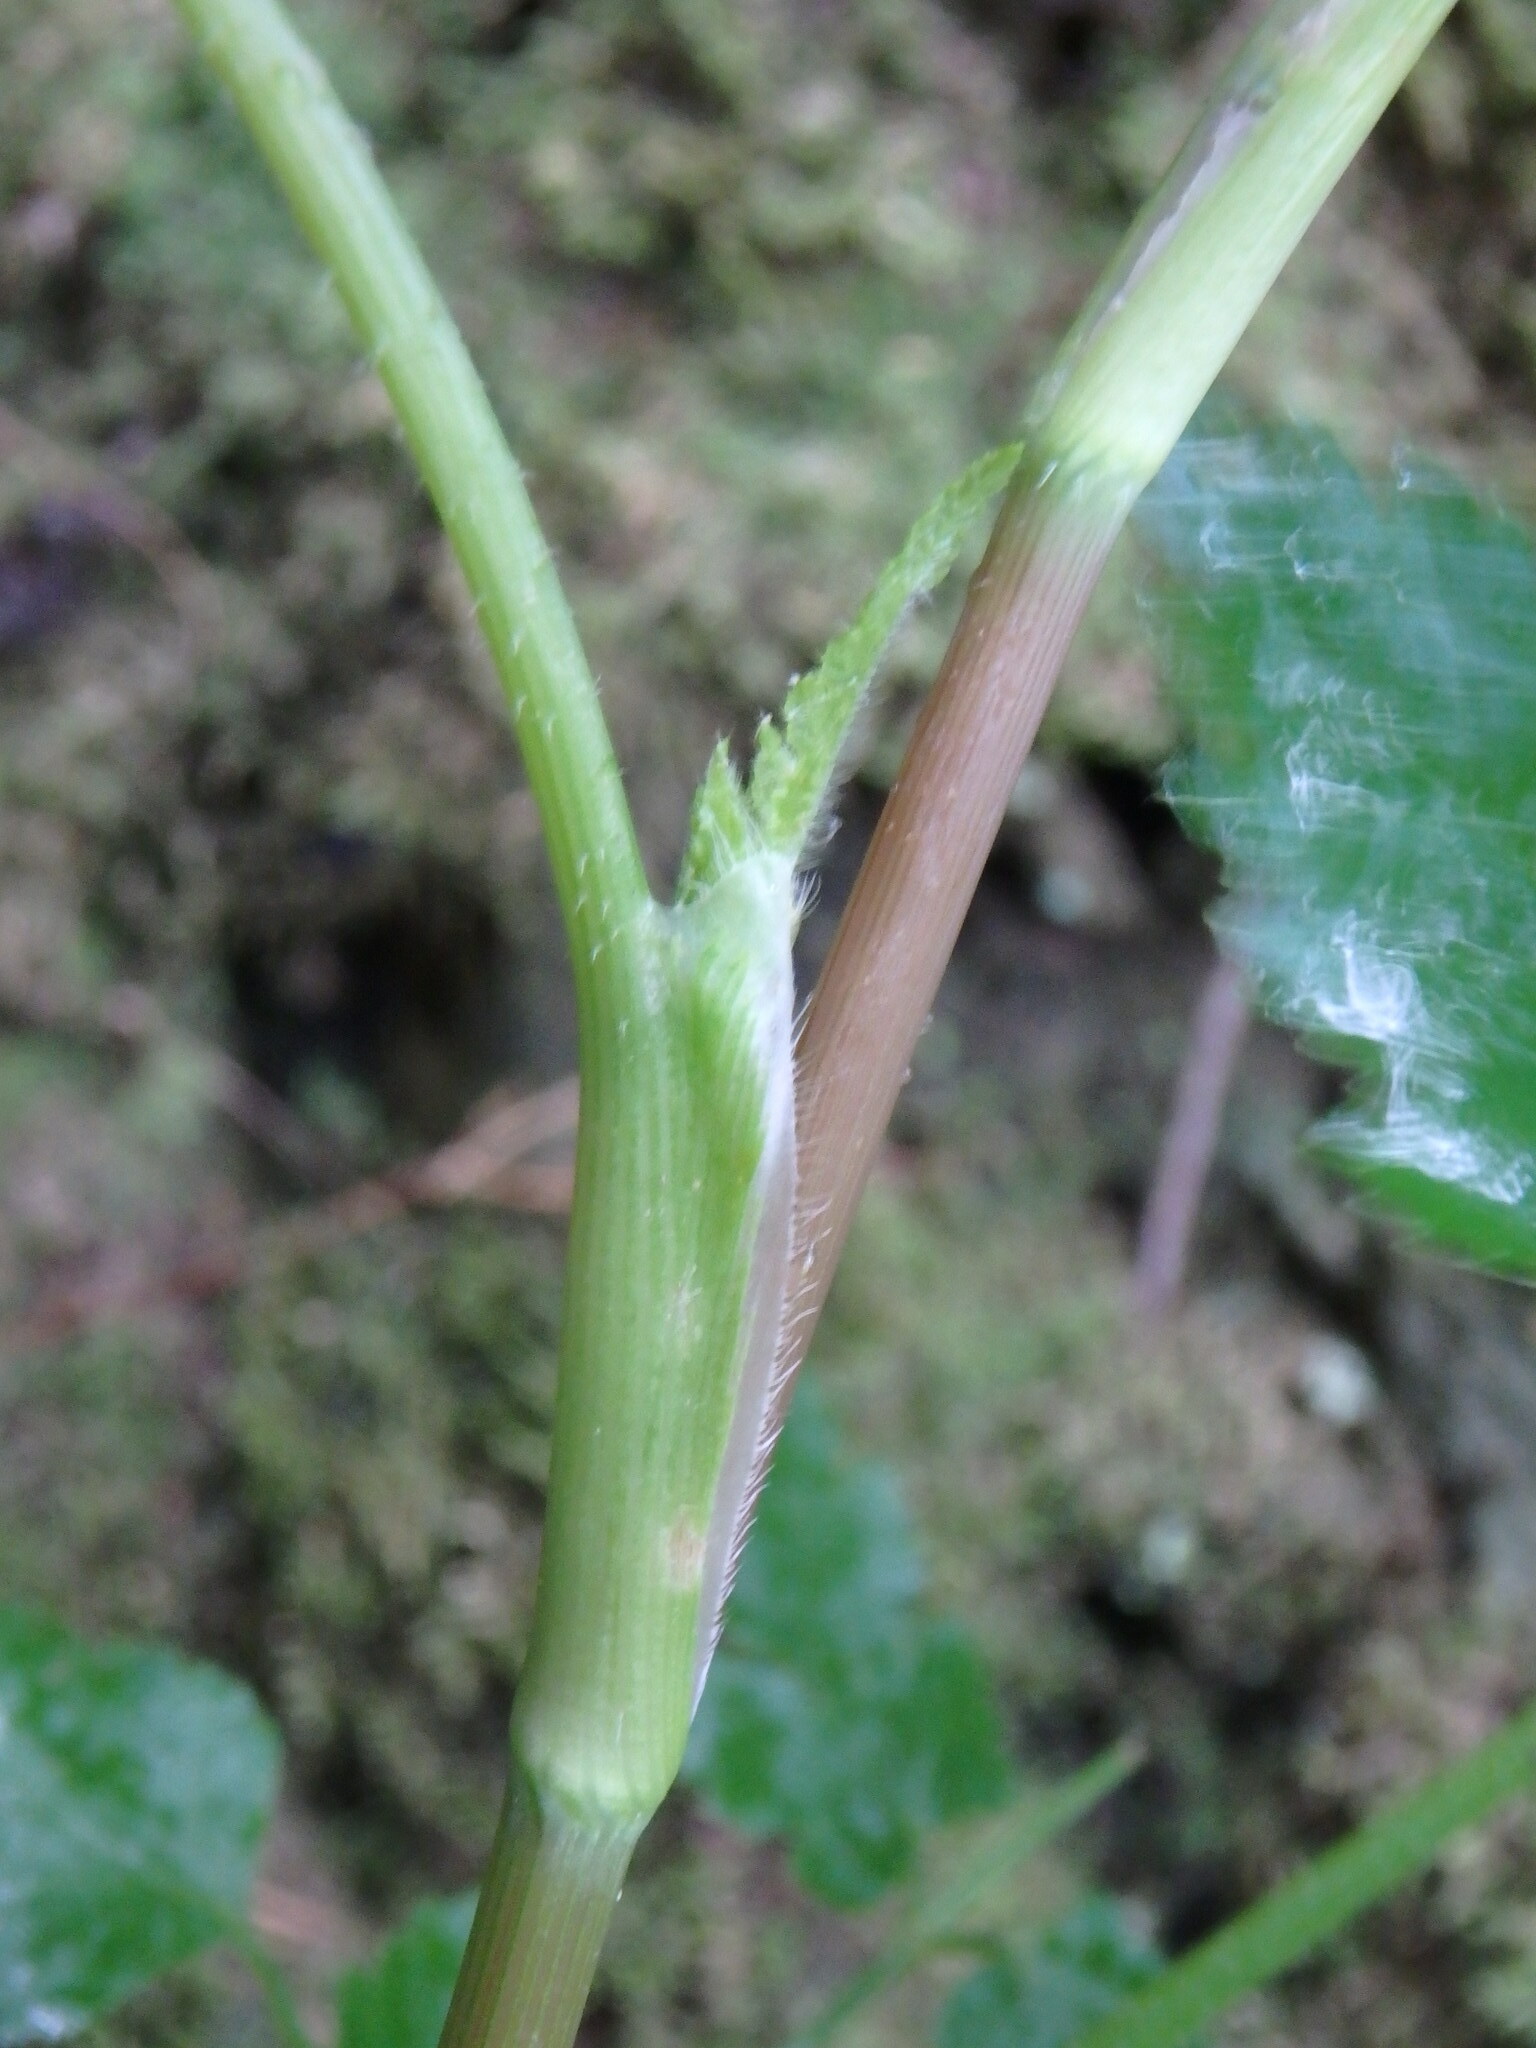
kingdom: Plantae
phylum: Tracheophyta
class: Magnoliopsida
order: Apiales
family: Apiaceae
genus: Pimpinella
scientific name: Pimpinella anagodendron
